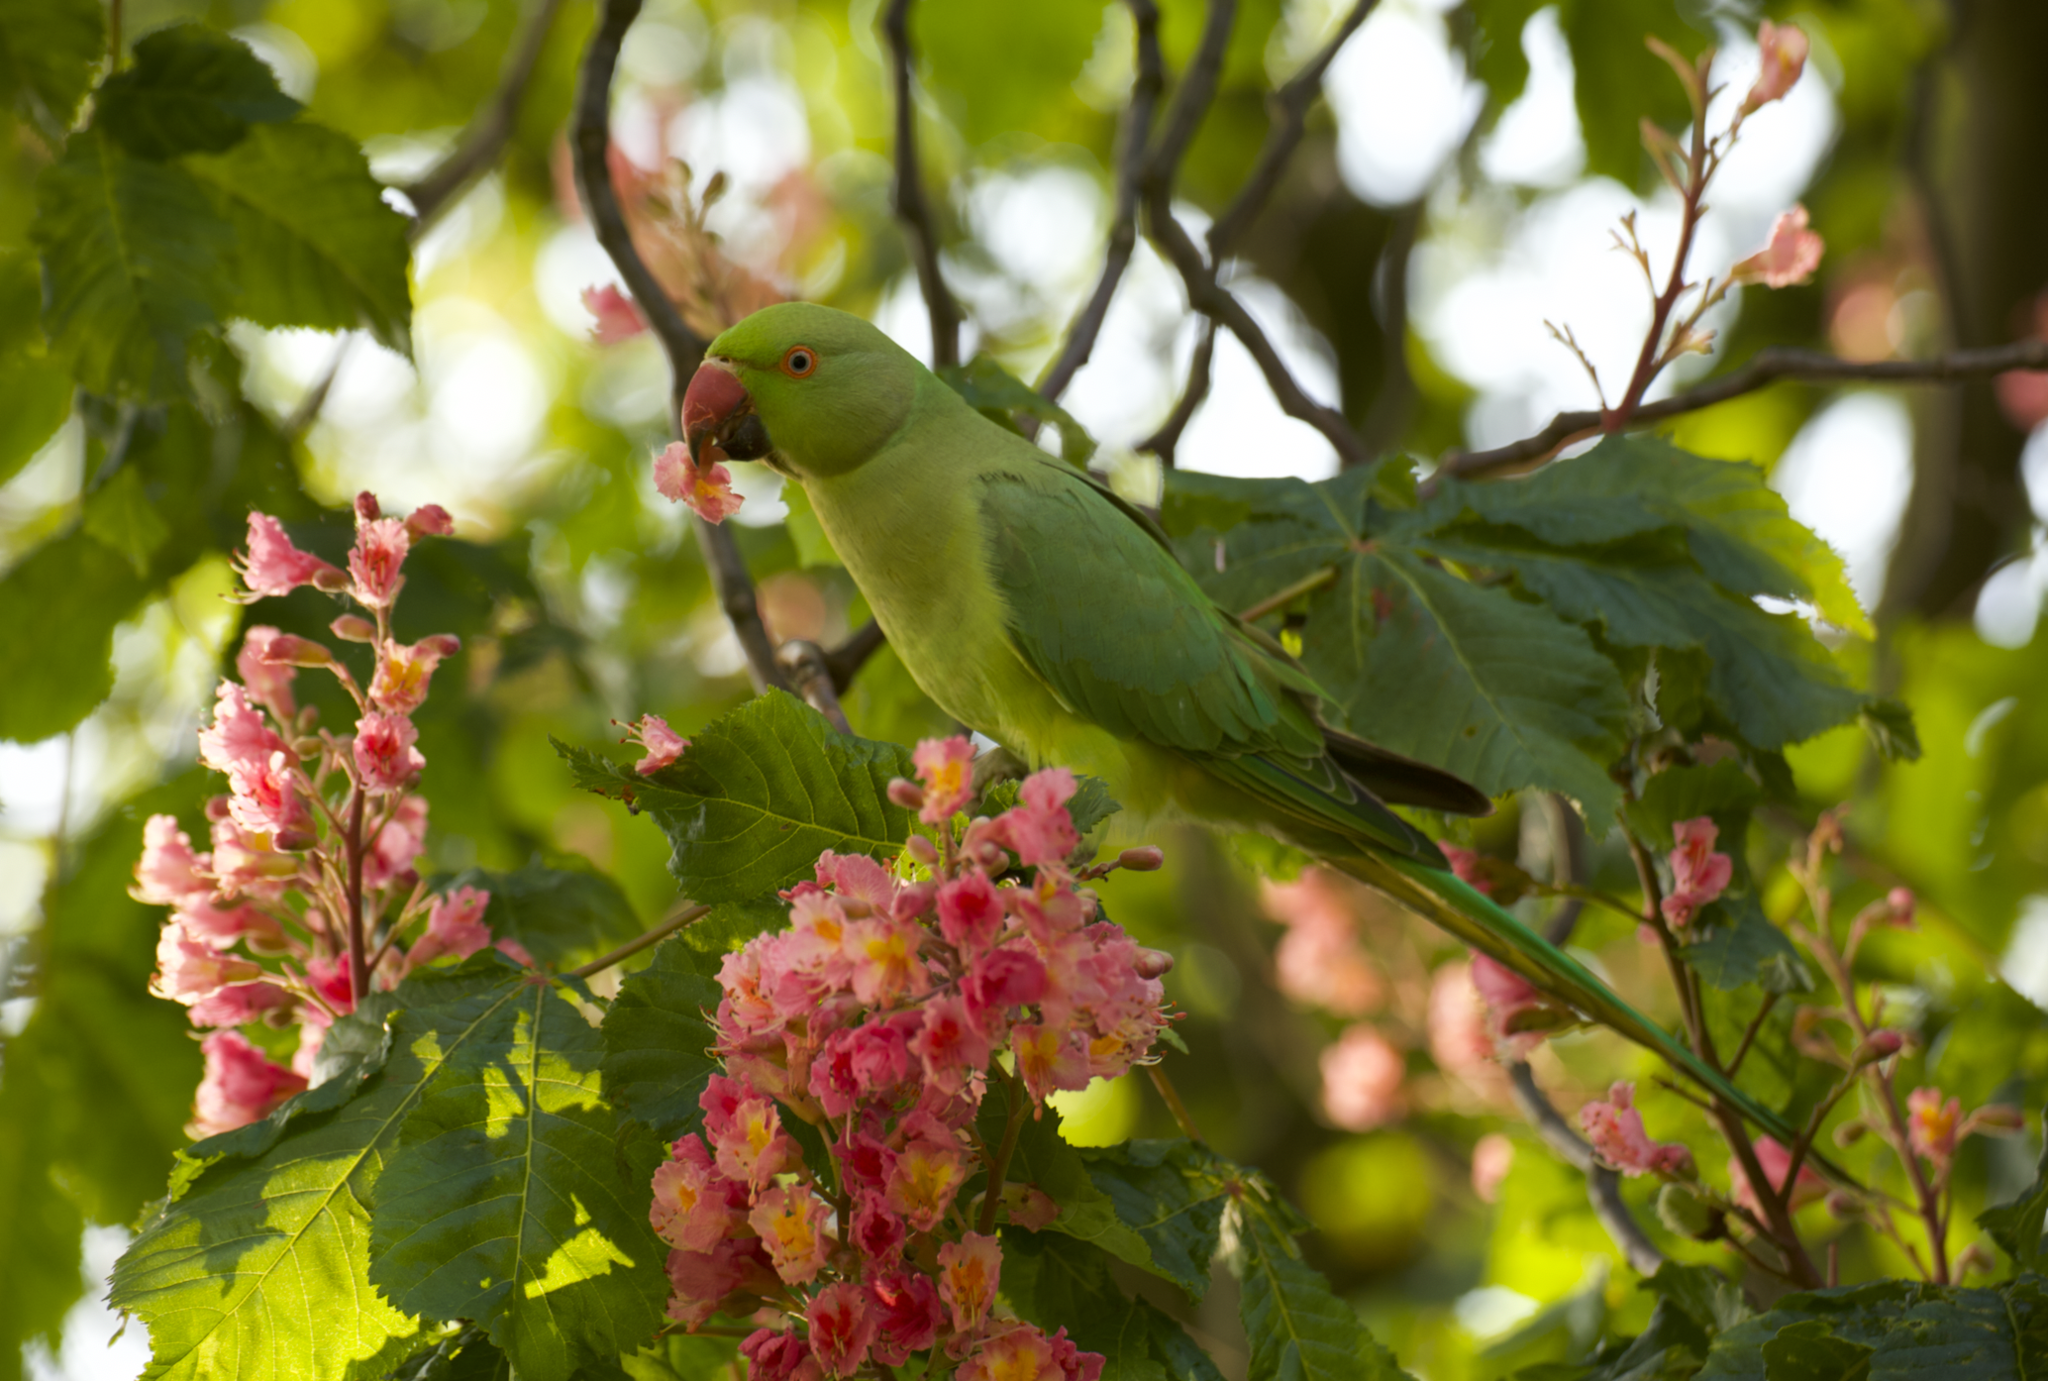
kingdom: Animalia
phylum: Chordata
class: Aves
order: Psittaciformes
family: Psittacidae
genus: Psittacula
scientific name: Psittacula krameri
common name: Rose-ringed parakeet
